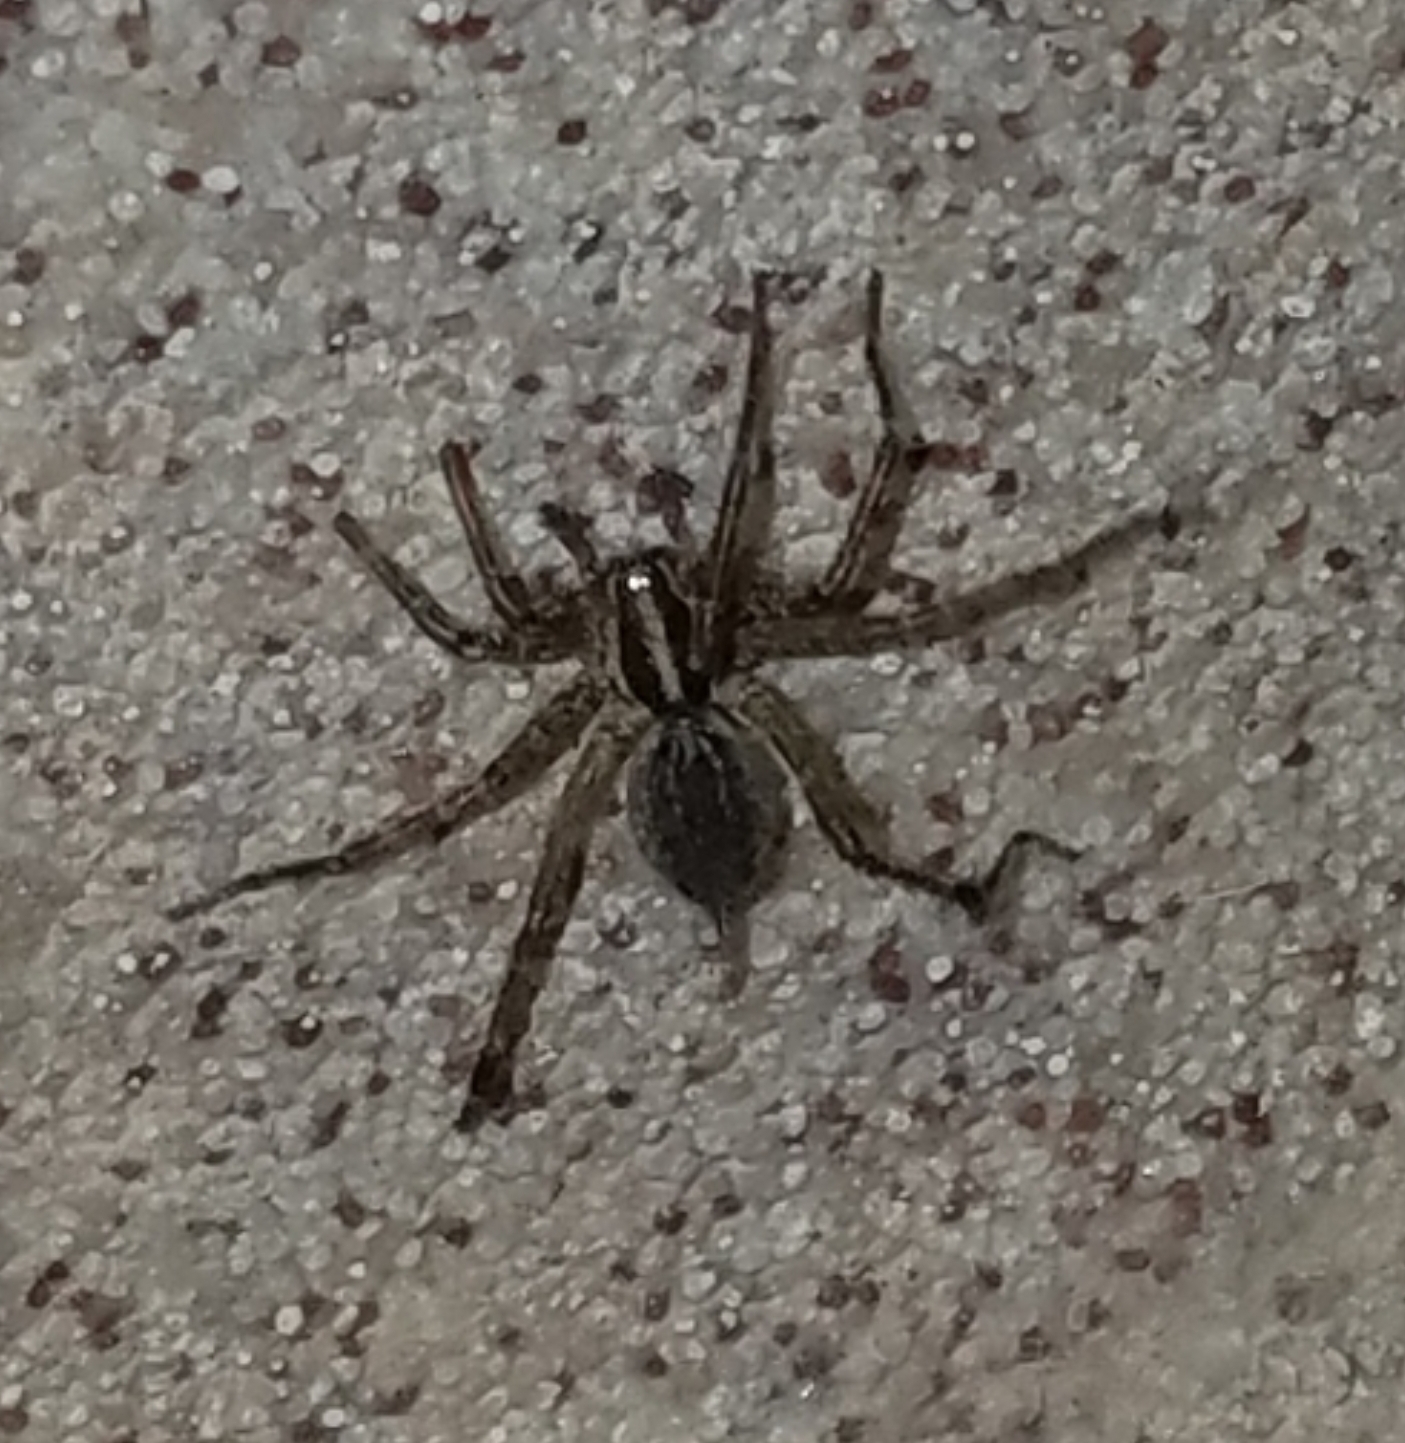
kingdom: Animalia
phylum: Arthropoda
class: Arachnida
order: Araneae
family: Agelenidae
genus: Agelenopsis
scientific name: Agelenopsis
